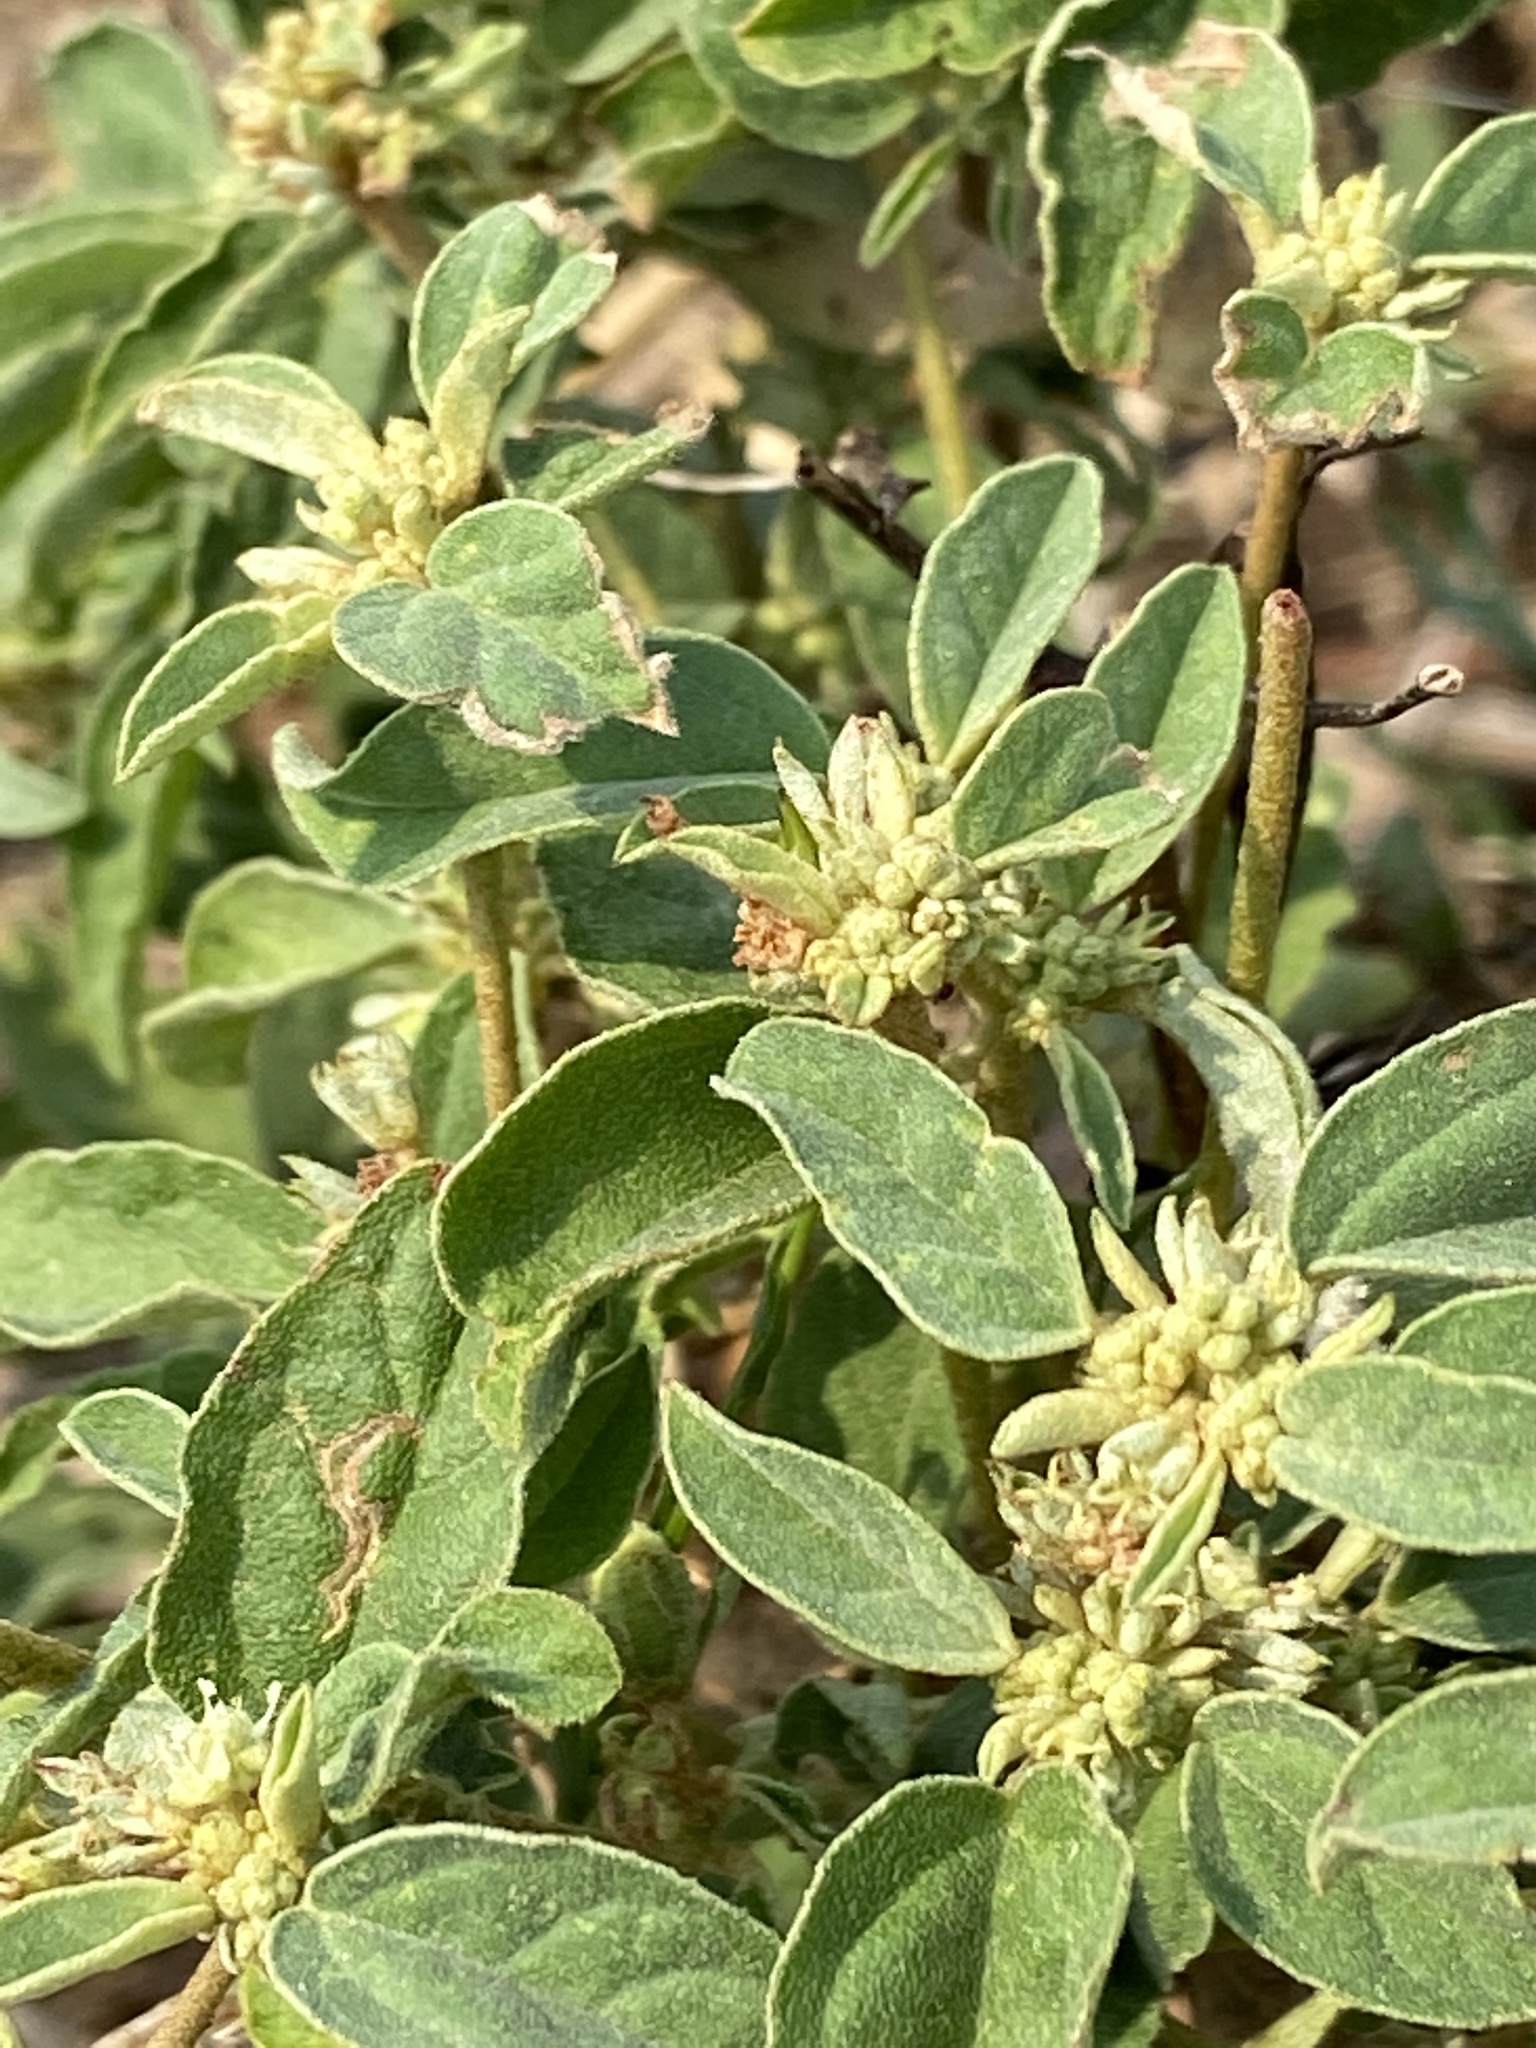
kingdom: Plantae
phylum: Tracheophyta
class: Magnoliopsida
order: Malpighiales
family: Euphorbiaceae
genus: Croton
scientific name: Croton monanthogynus
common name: One-seed croton
